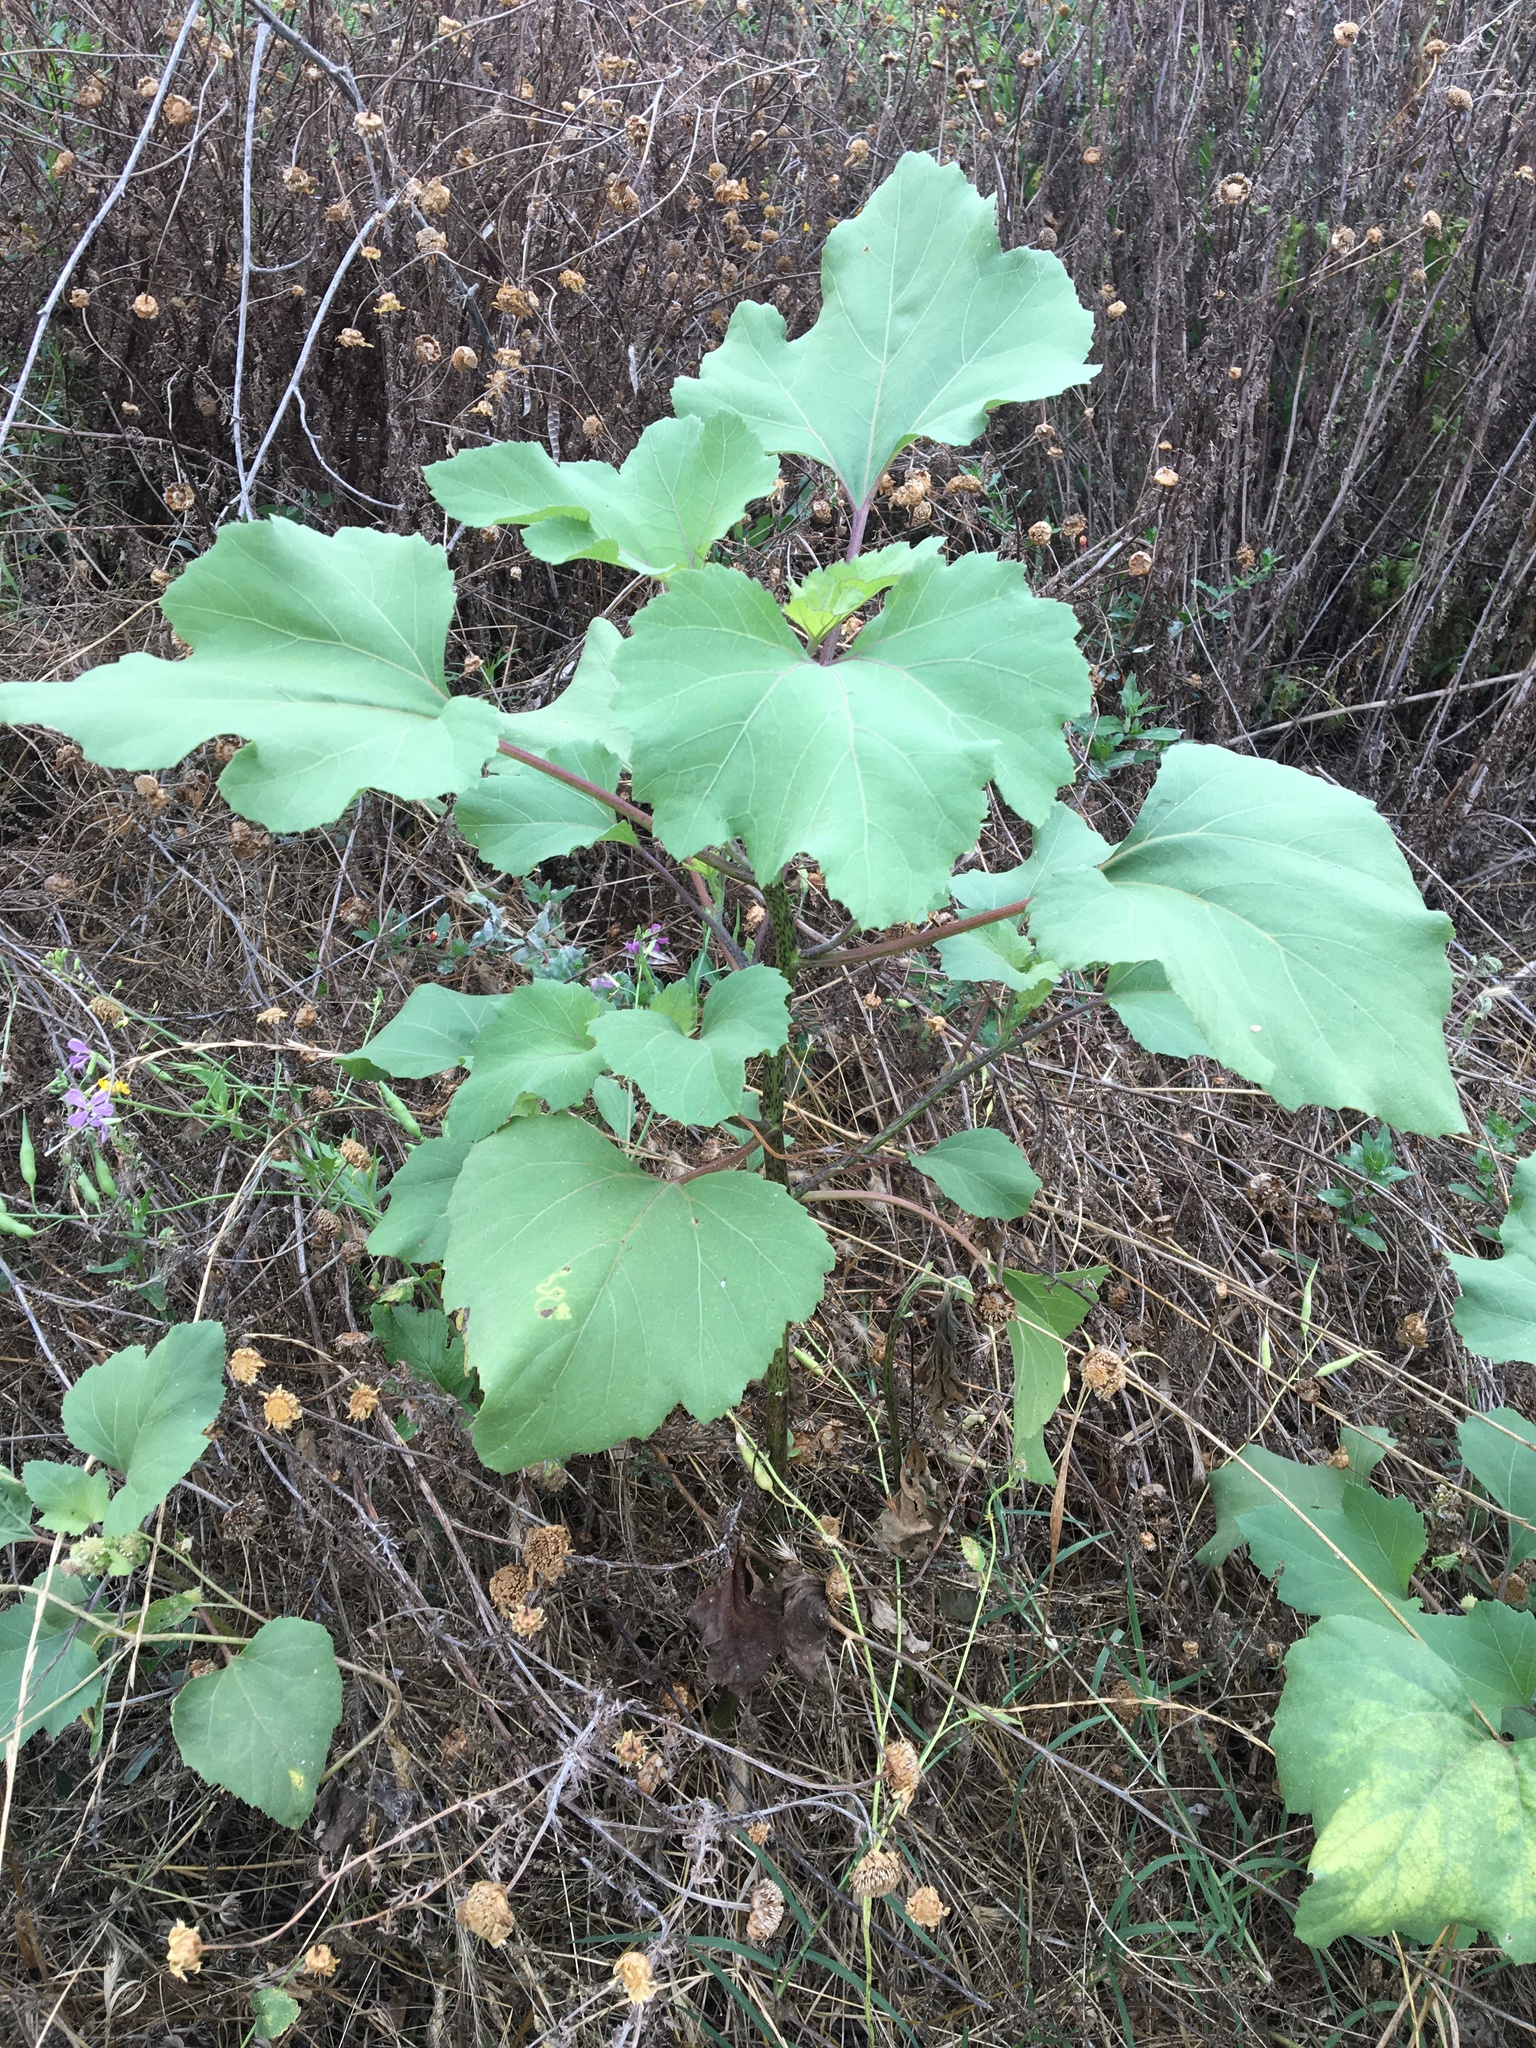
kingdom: Plantae
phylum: Tracheophyta
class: Magnoliopsida
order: Asterales
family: Asteraceae
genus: Xanthium
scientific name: Xanthium strumarium
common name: Rough cocklebur
